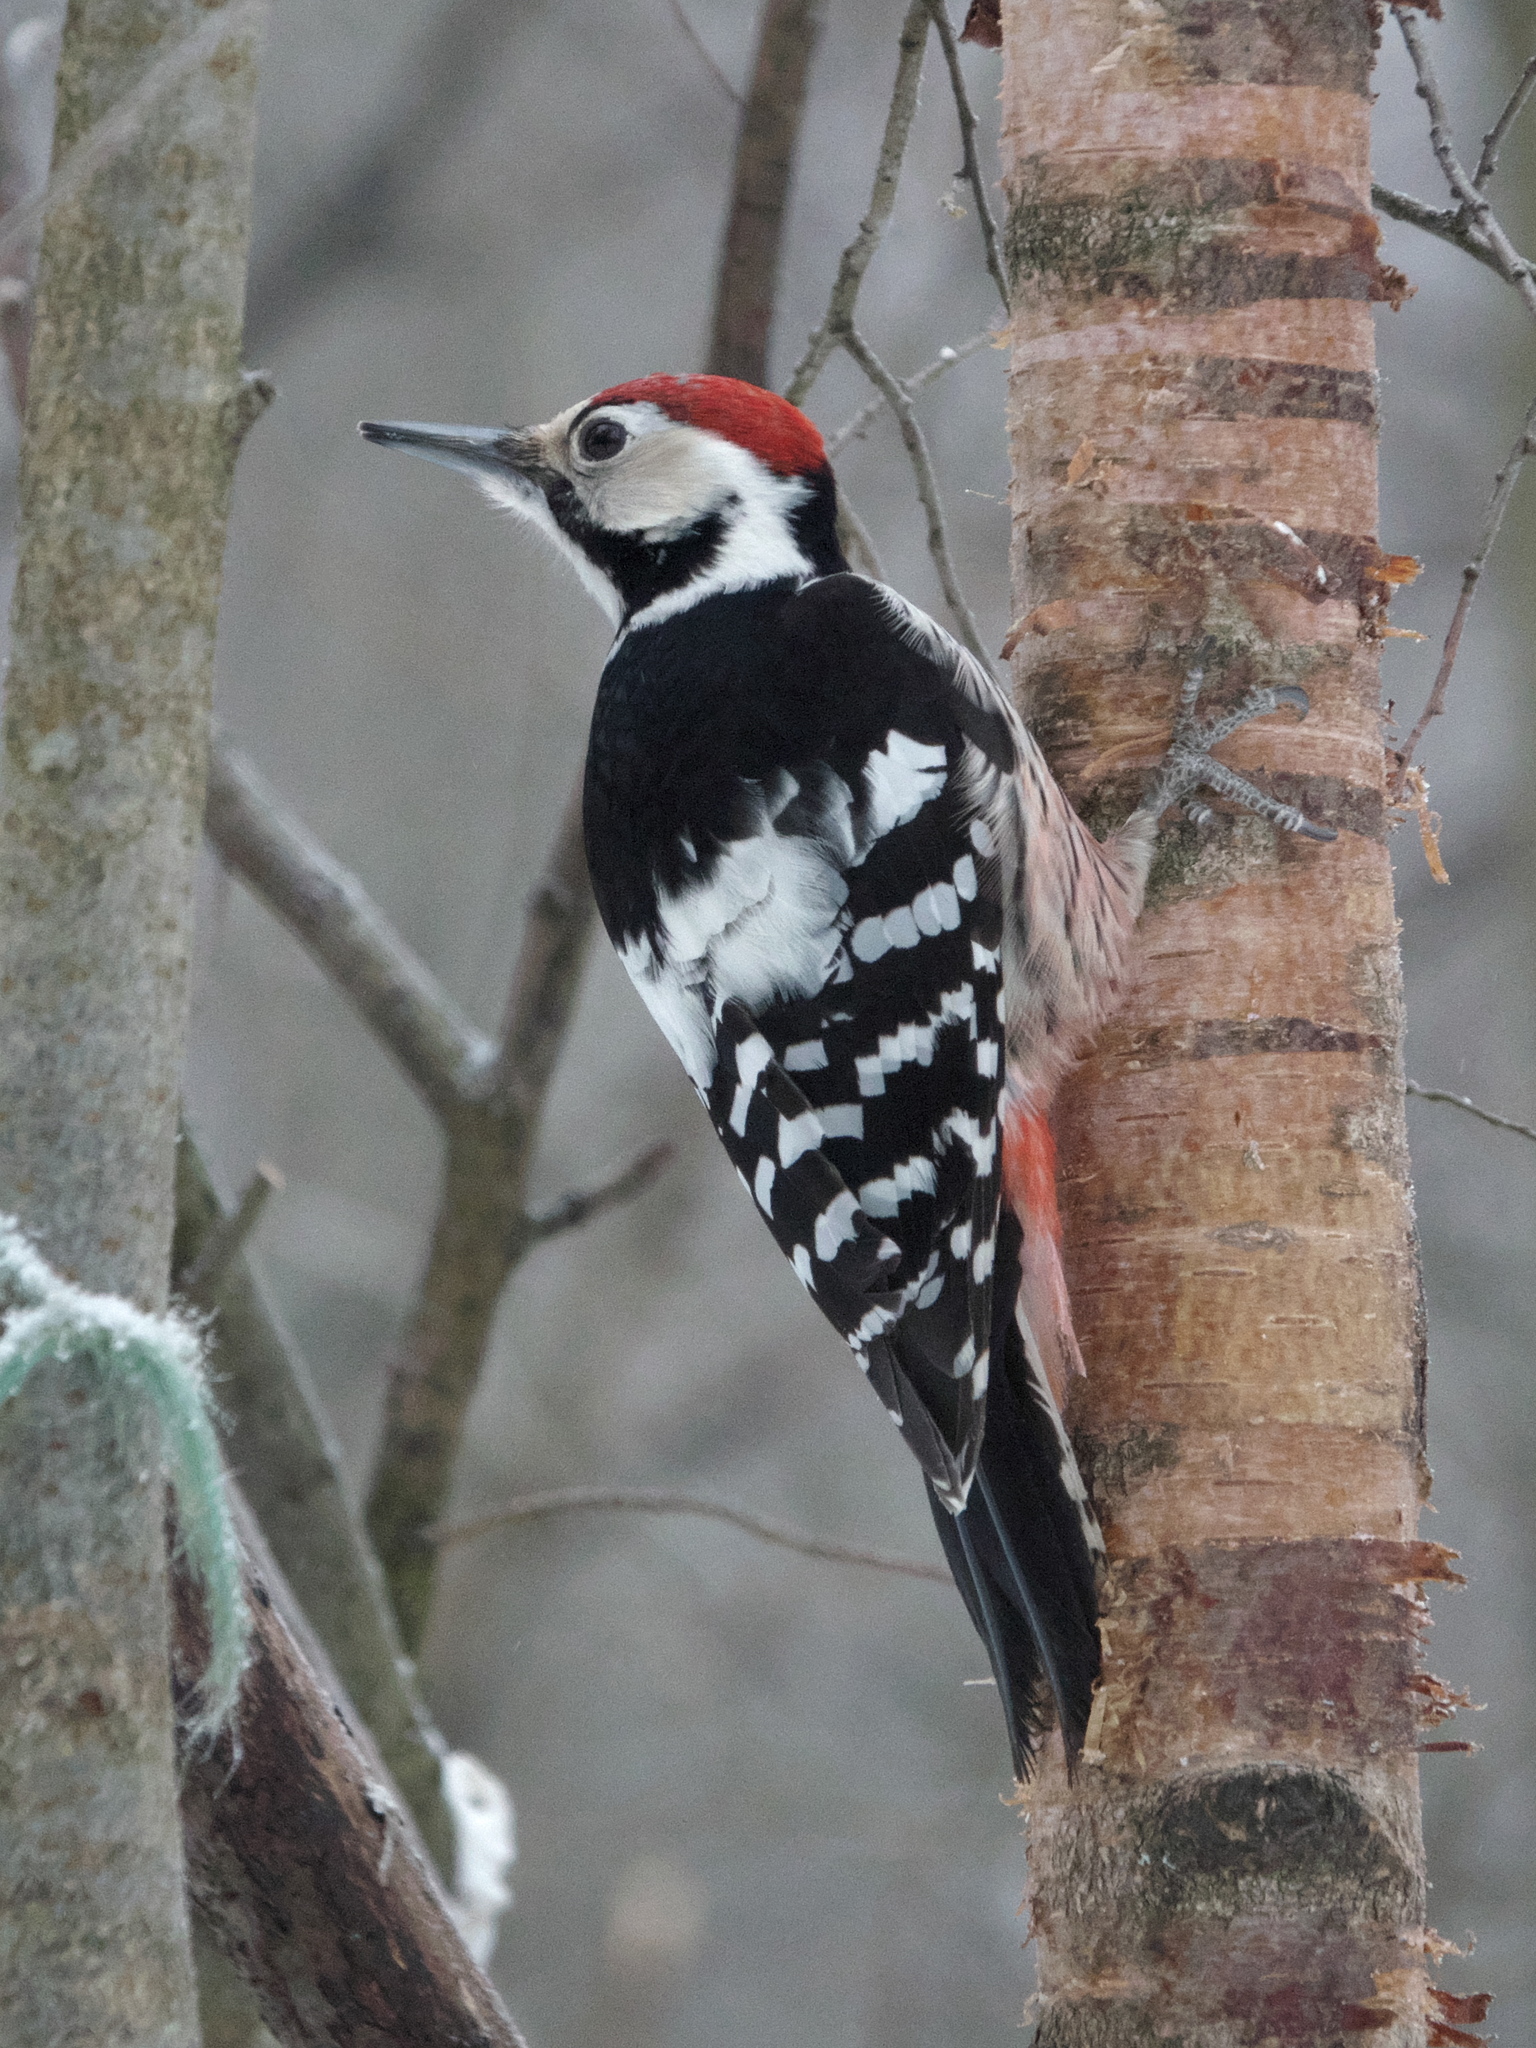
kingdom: Animalia
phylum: Chordata
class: Aves
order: Piciformes
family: Picidae
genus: Dendrocopos
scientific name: Dendrocopos leucotos
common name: White-backed woodpecker
